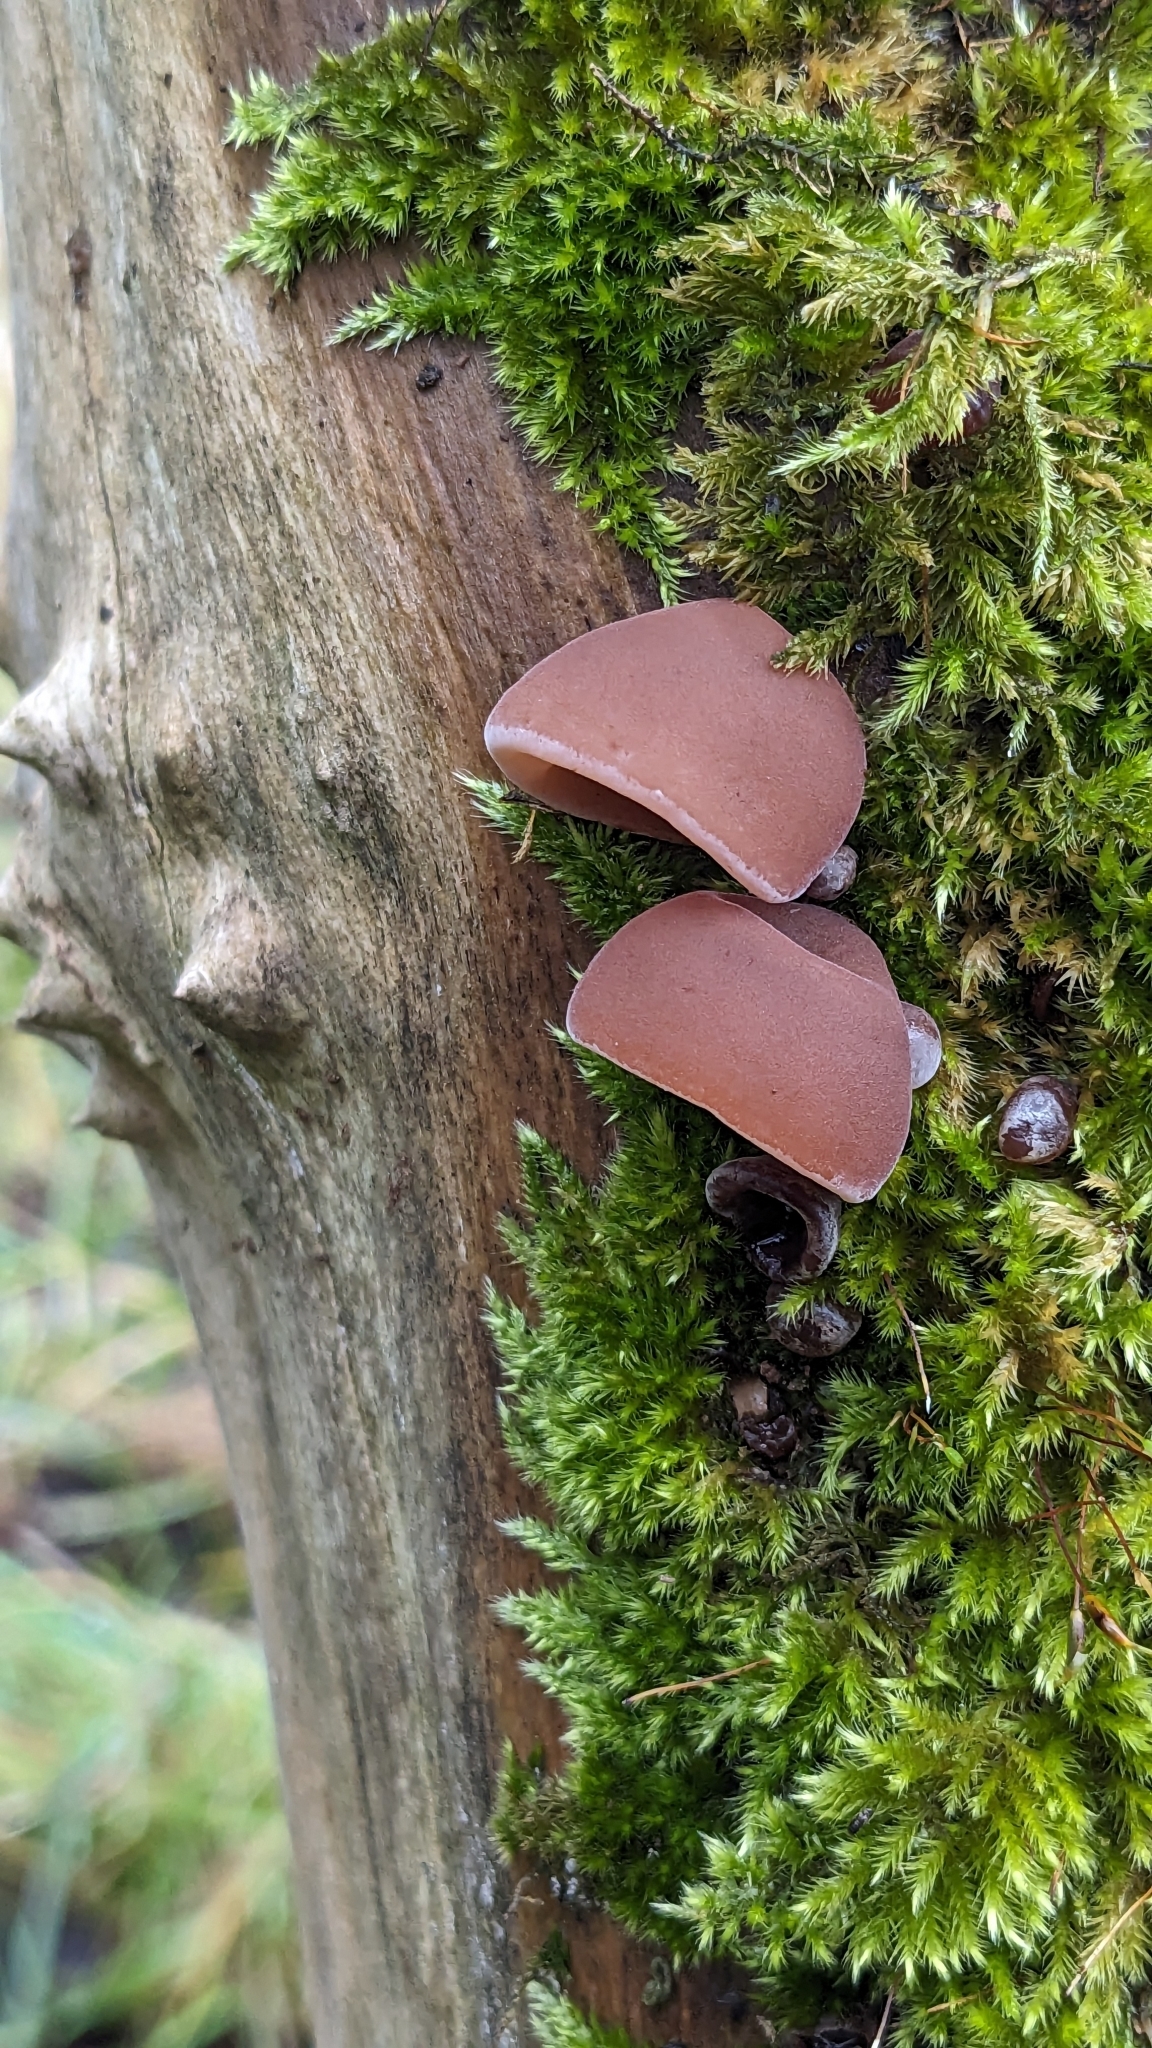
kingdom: Fungi
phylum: Basidiomycota
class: Agaricomycetes
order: Auriculariales
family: Auriculariaceae
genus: Auricularia
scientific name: Auricularia auricula-judae
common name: Jelly ear
